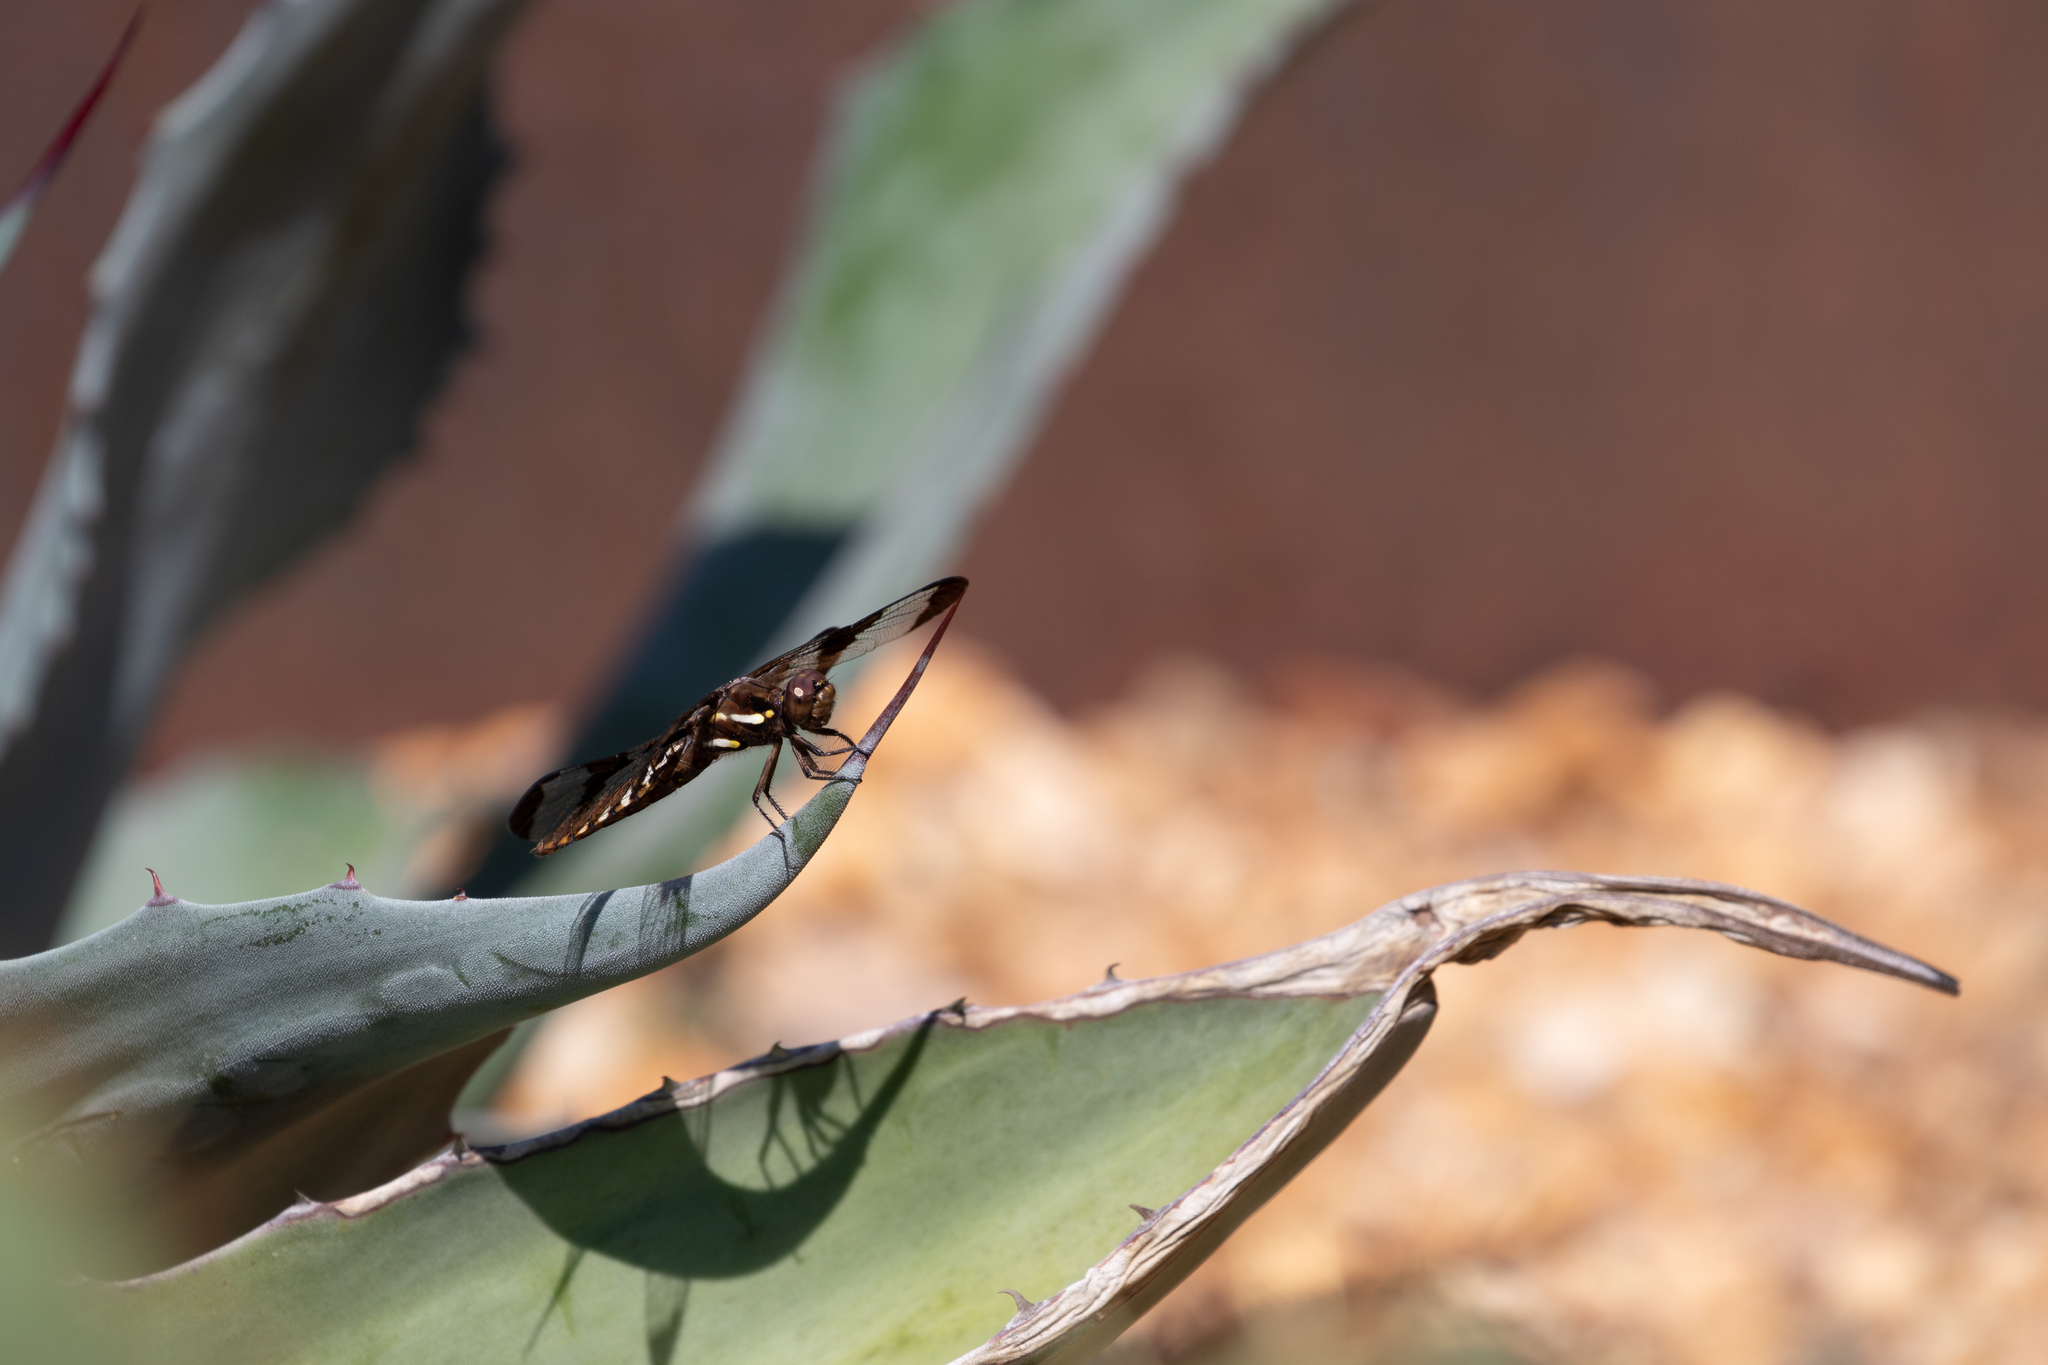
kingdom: Animalia
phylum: Arthropoda
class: Insecta
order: Odonata
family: Libellulidae
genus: Plathemis
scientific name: Plathemis lydia
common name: Common whitetail
